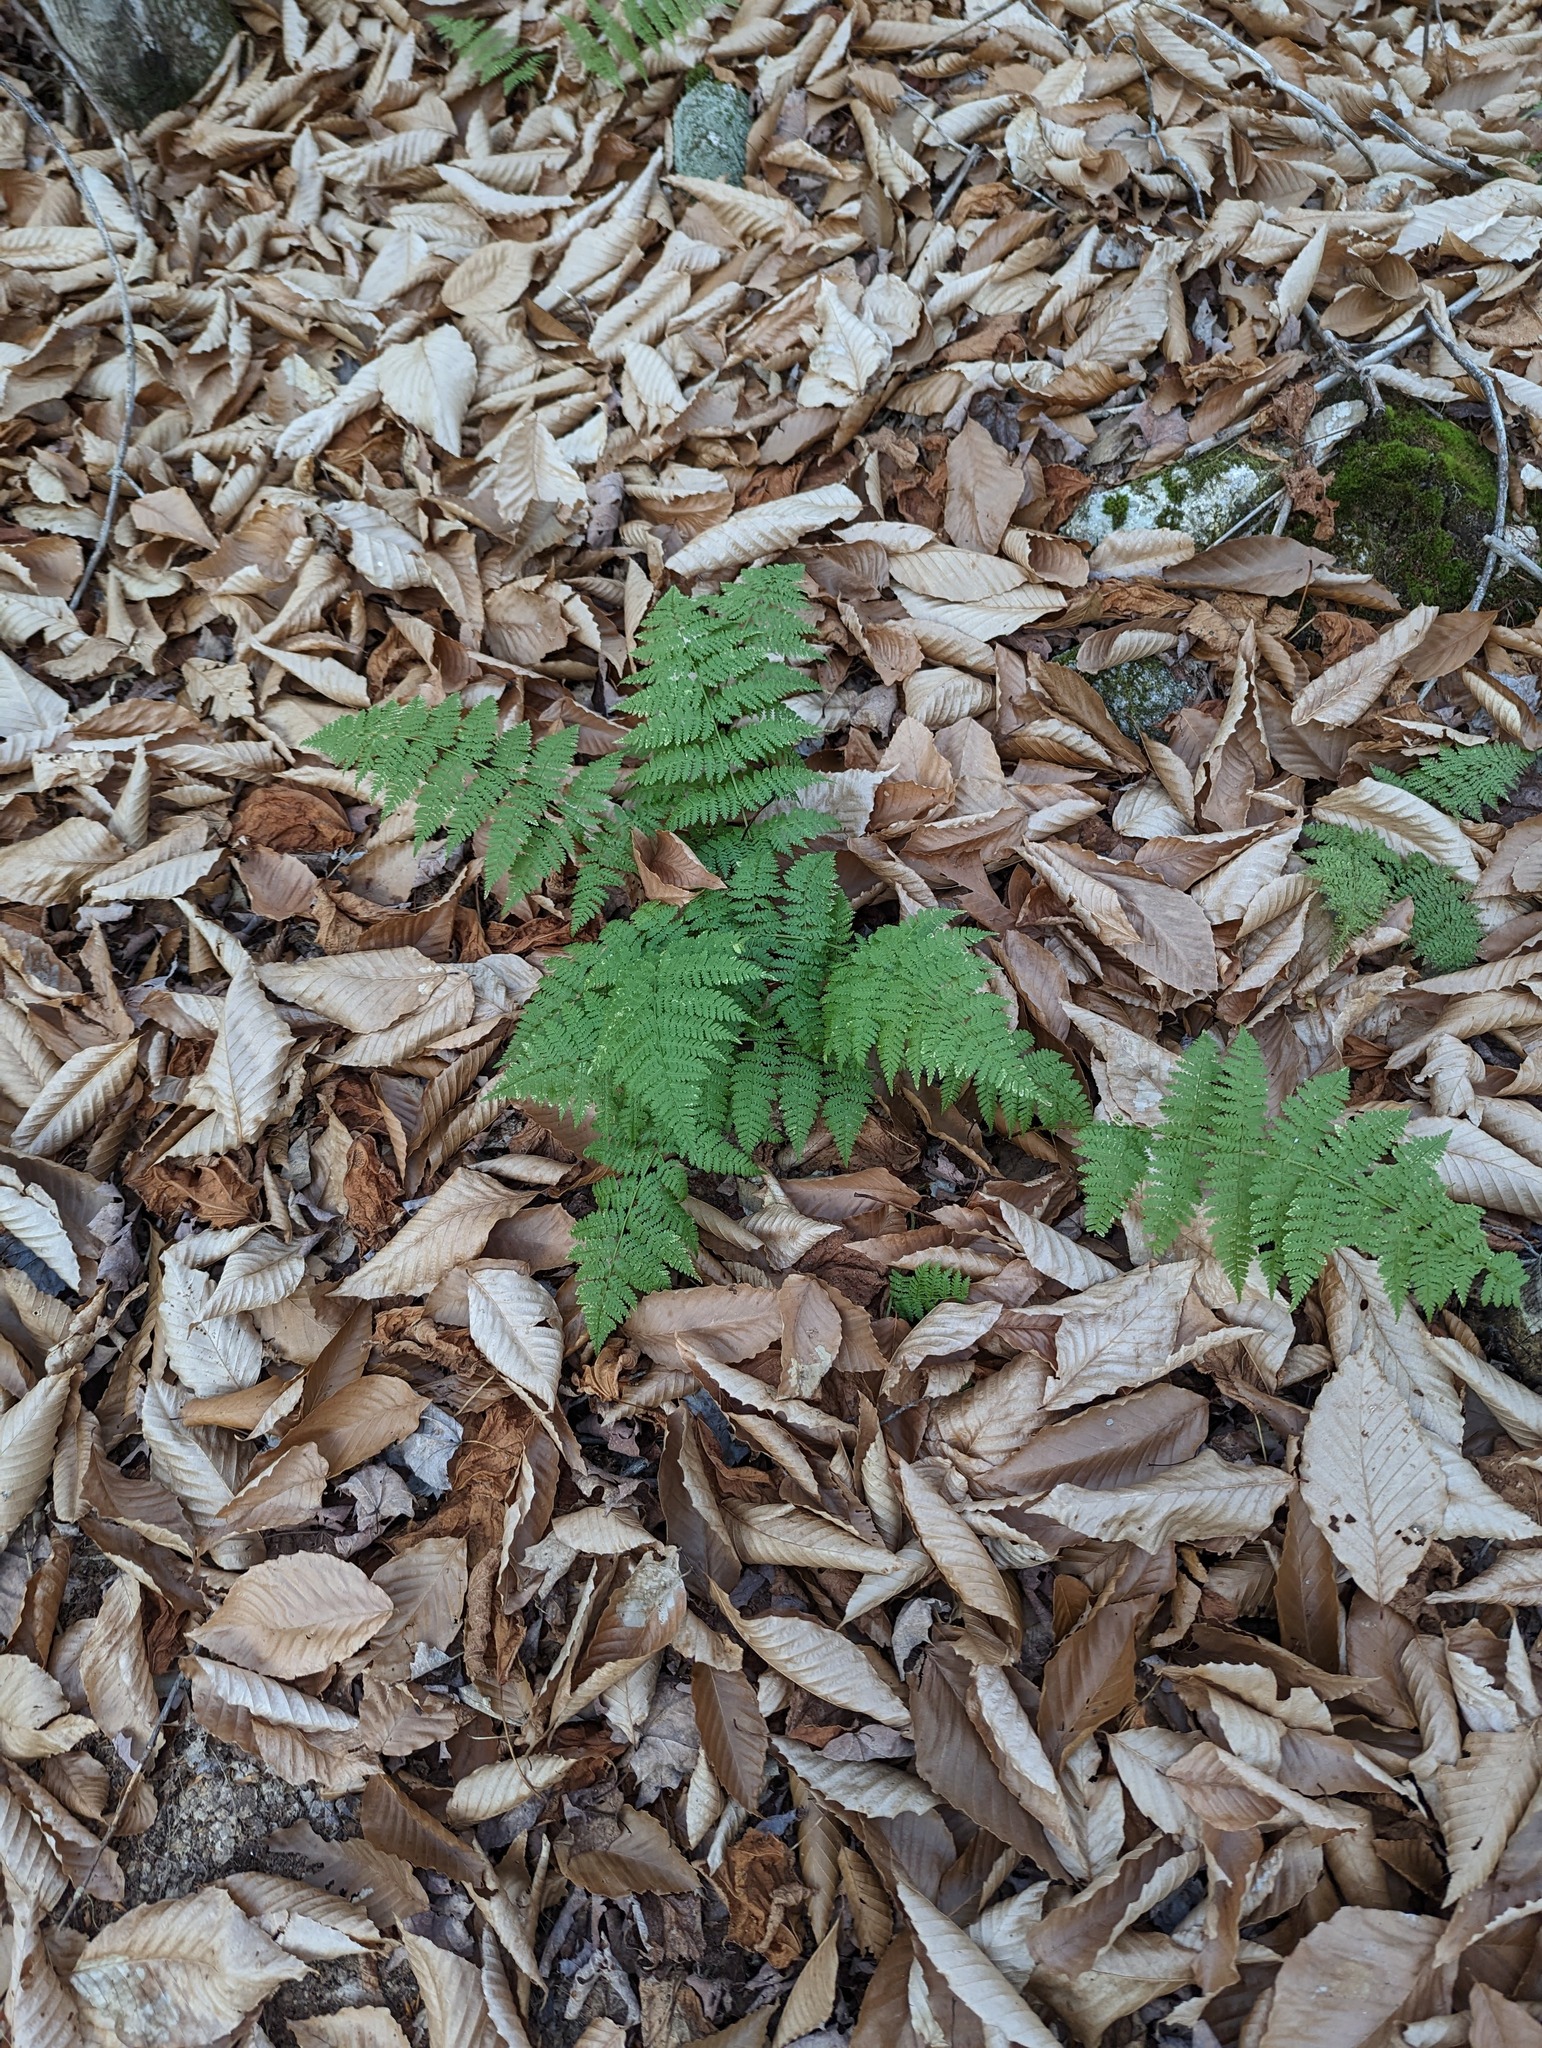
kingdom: Plantae
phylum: Tracheophyta
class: Polypodiopsida
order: Polypodiales
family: Dryopteridaceae
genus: Dryopteris
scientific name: Dryopteris intermedia
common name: Evergreen wood fern
